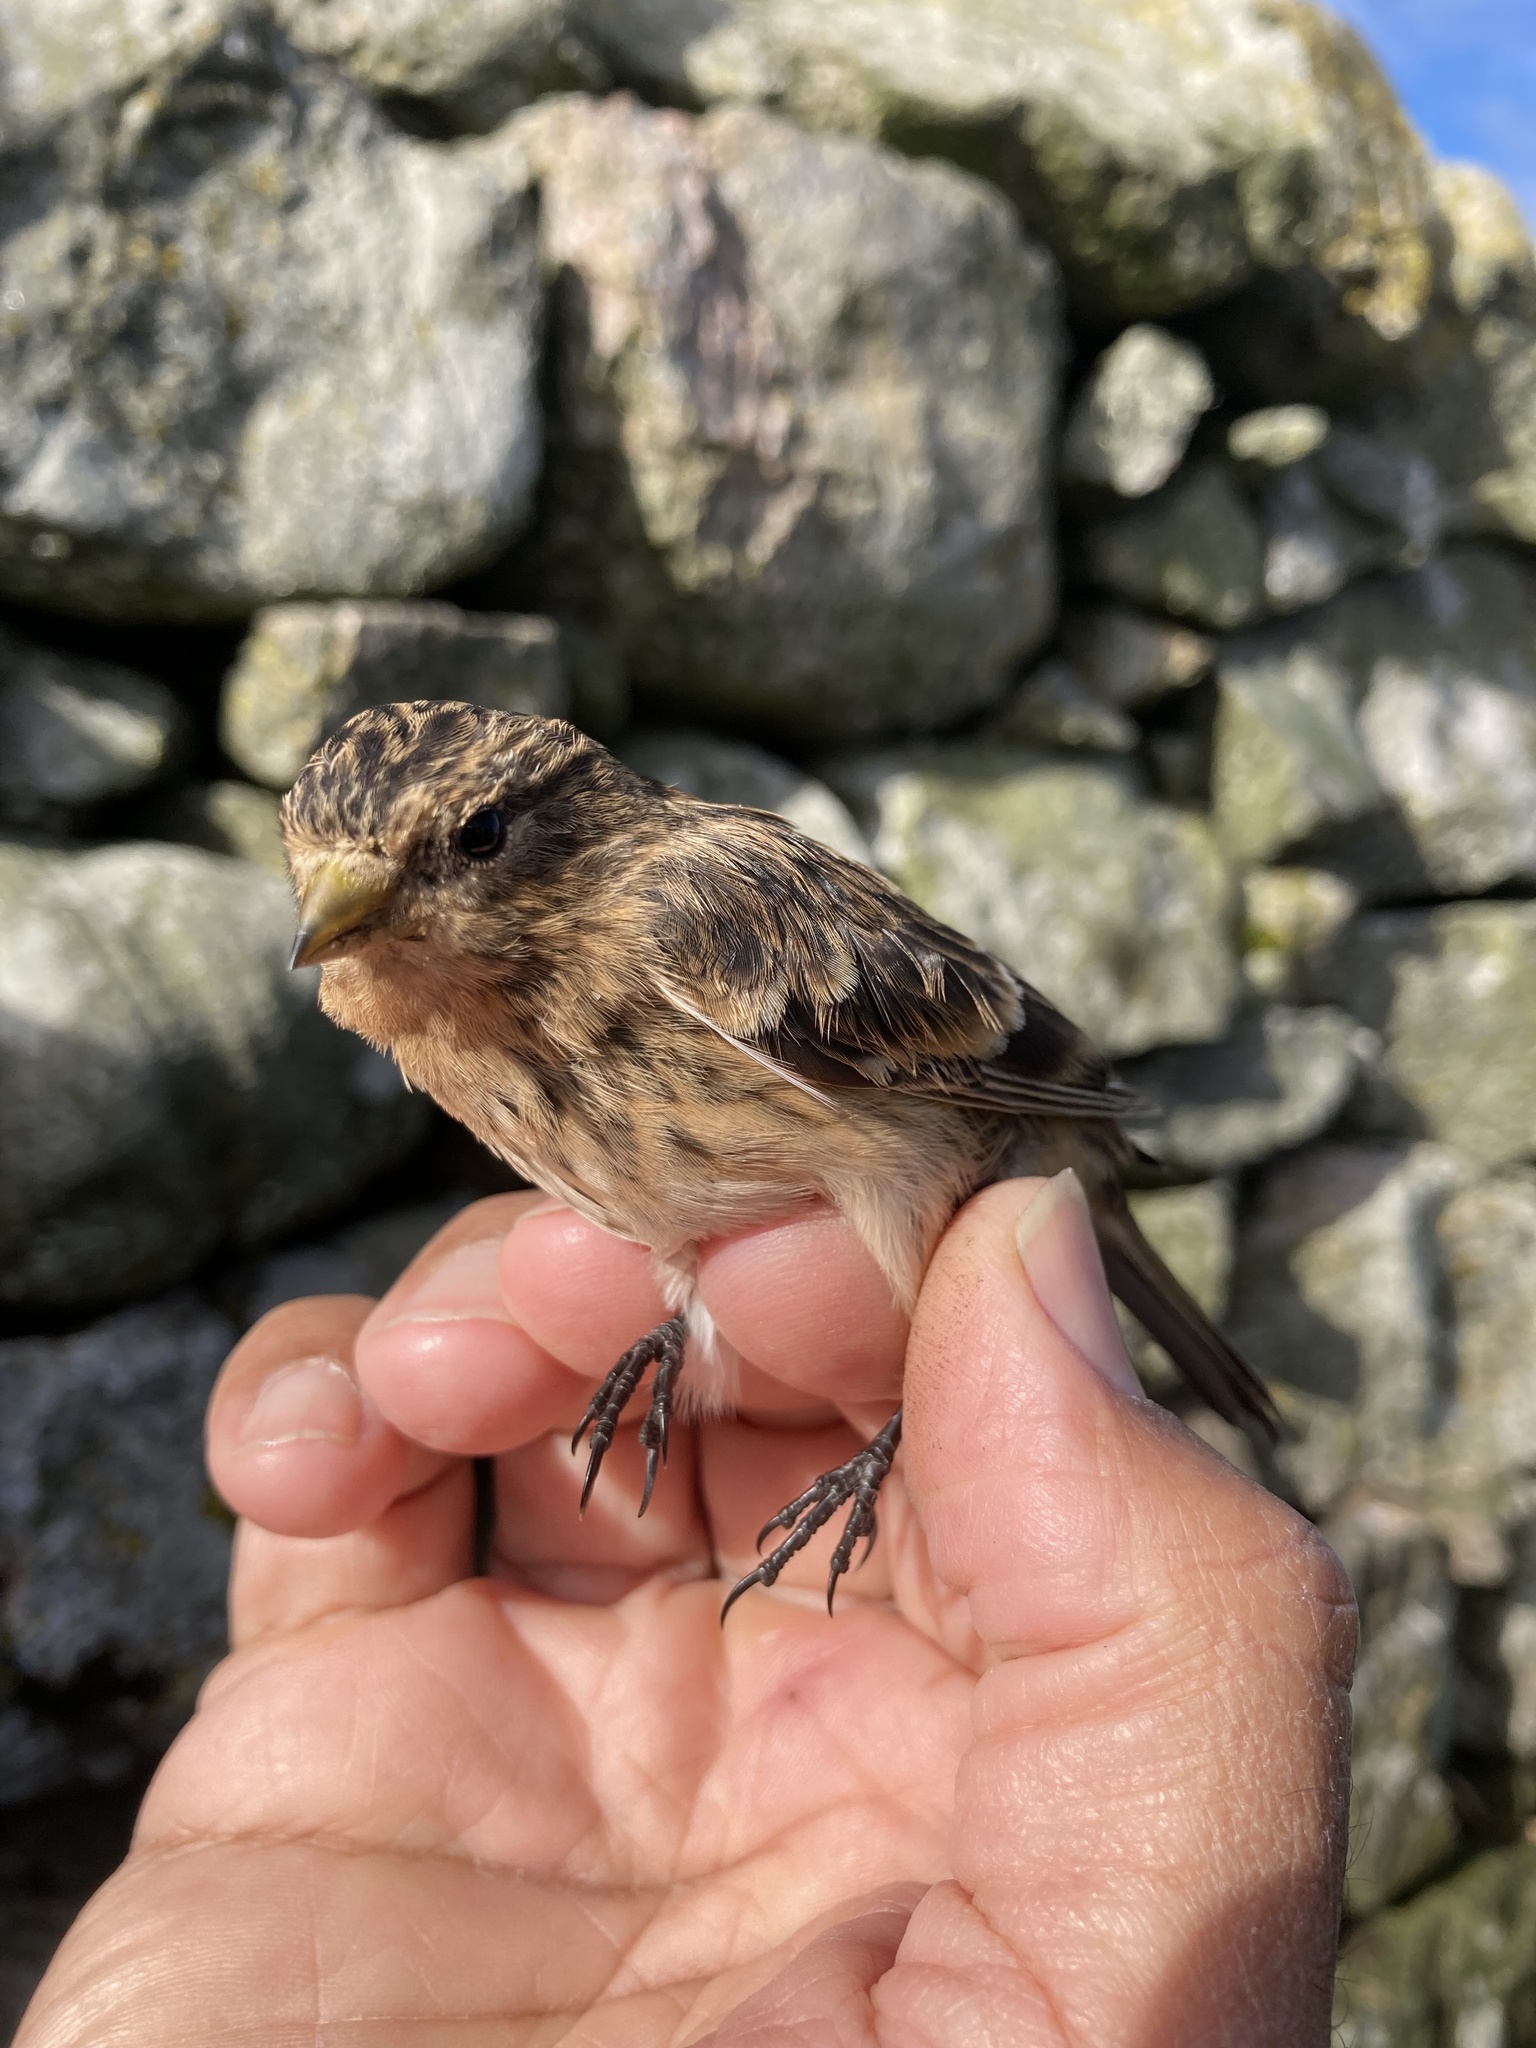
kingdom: Animalia
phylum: Chordata
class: Aves
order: Passeriformes
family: Fringillidae
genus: Linaria
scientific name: Linaria flavirostris
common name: Twite
